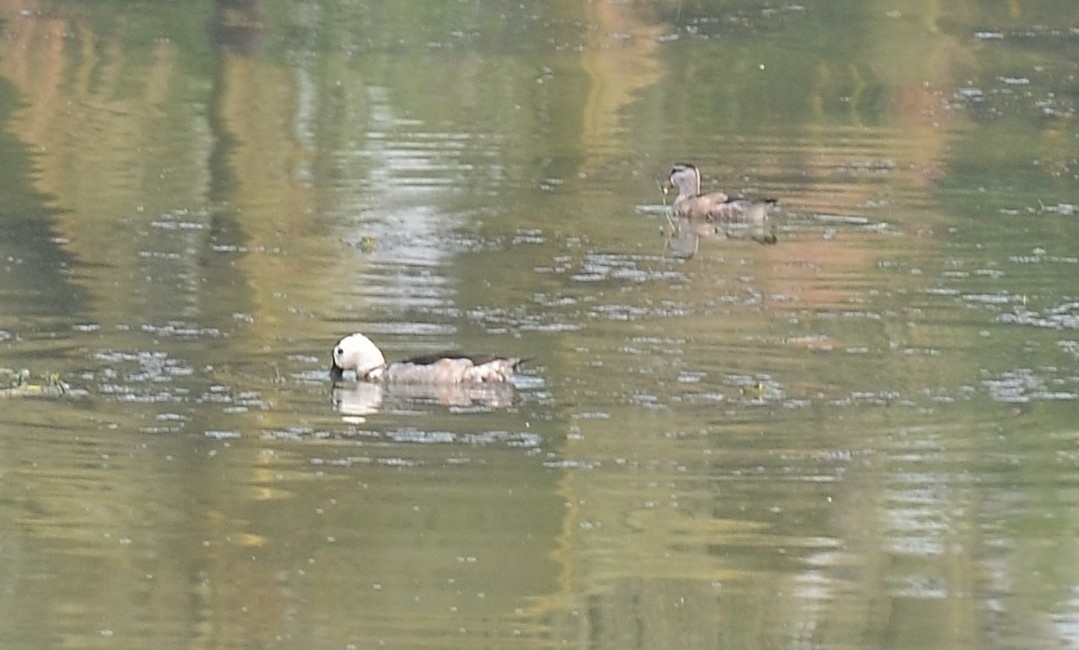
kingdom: Animalia
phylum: Chordata
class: Aves
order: Anseriformes
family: Anatidae
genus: Nettapus
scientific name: Nettapus coromandelianus
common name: Cotton pygmy-goose
